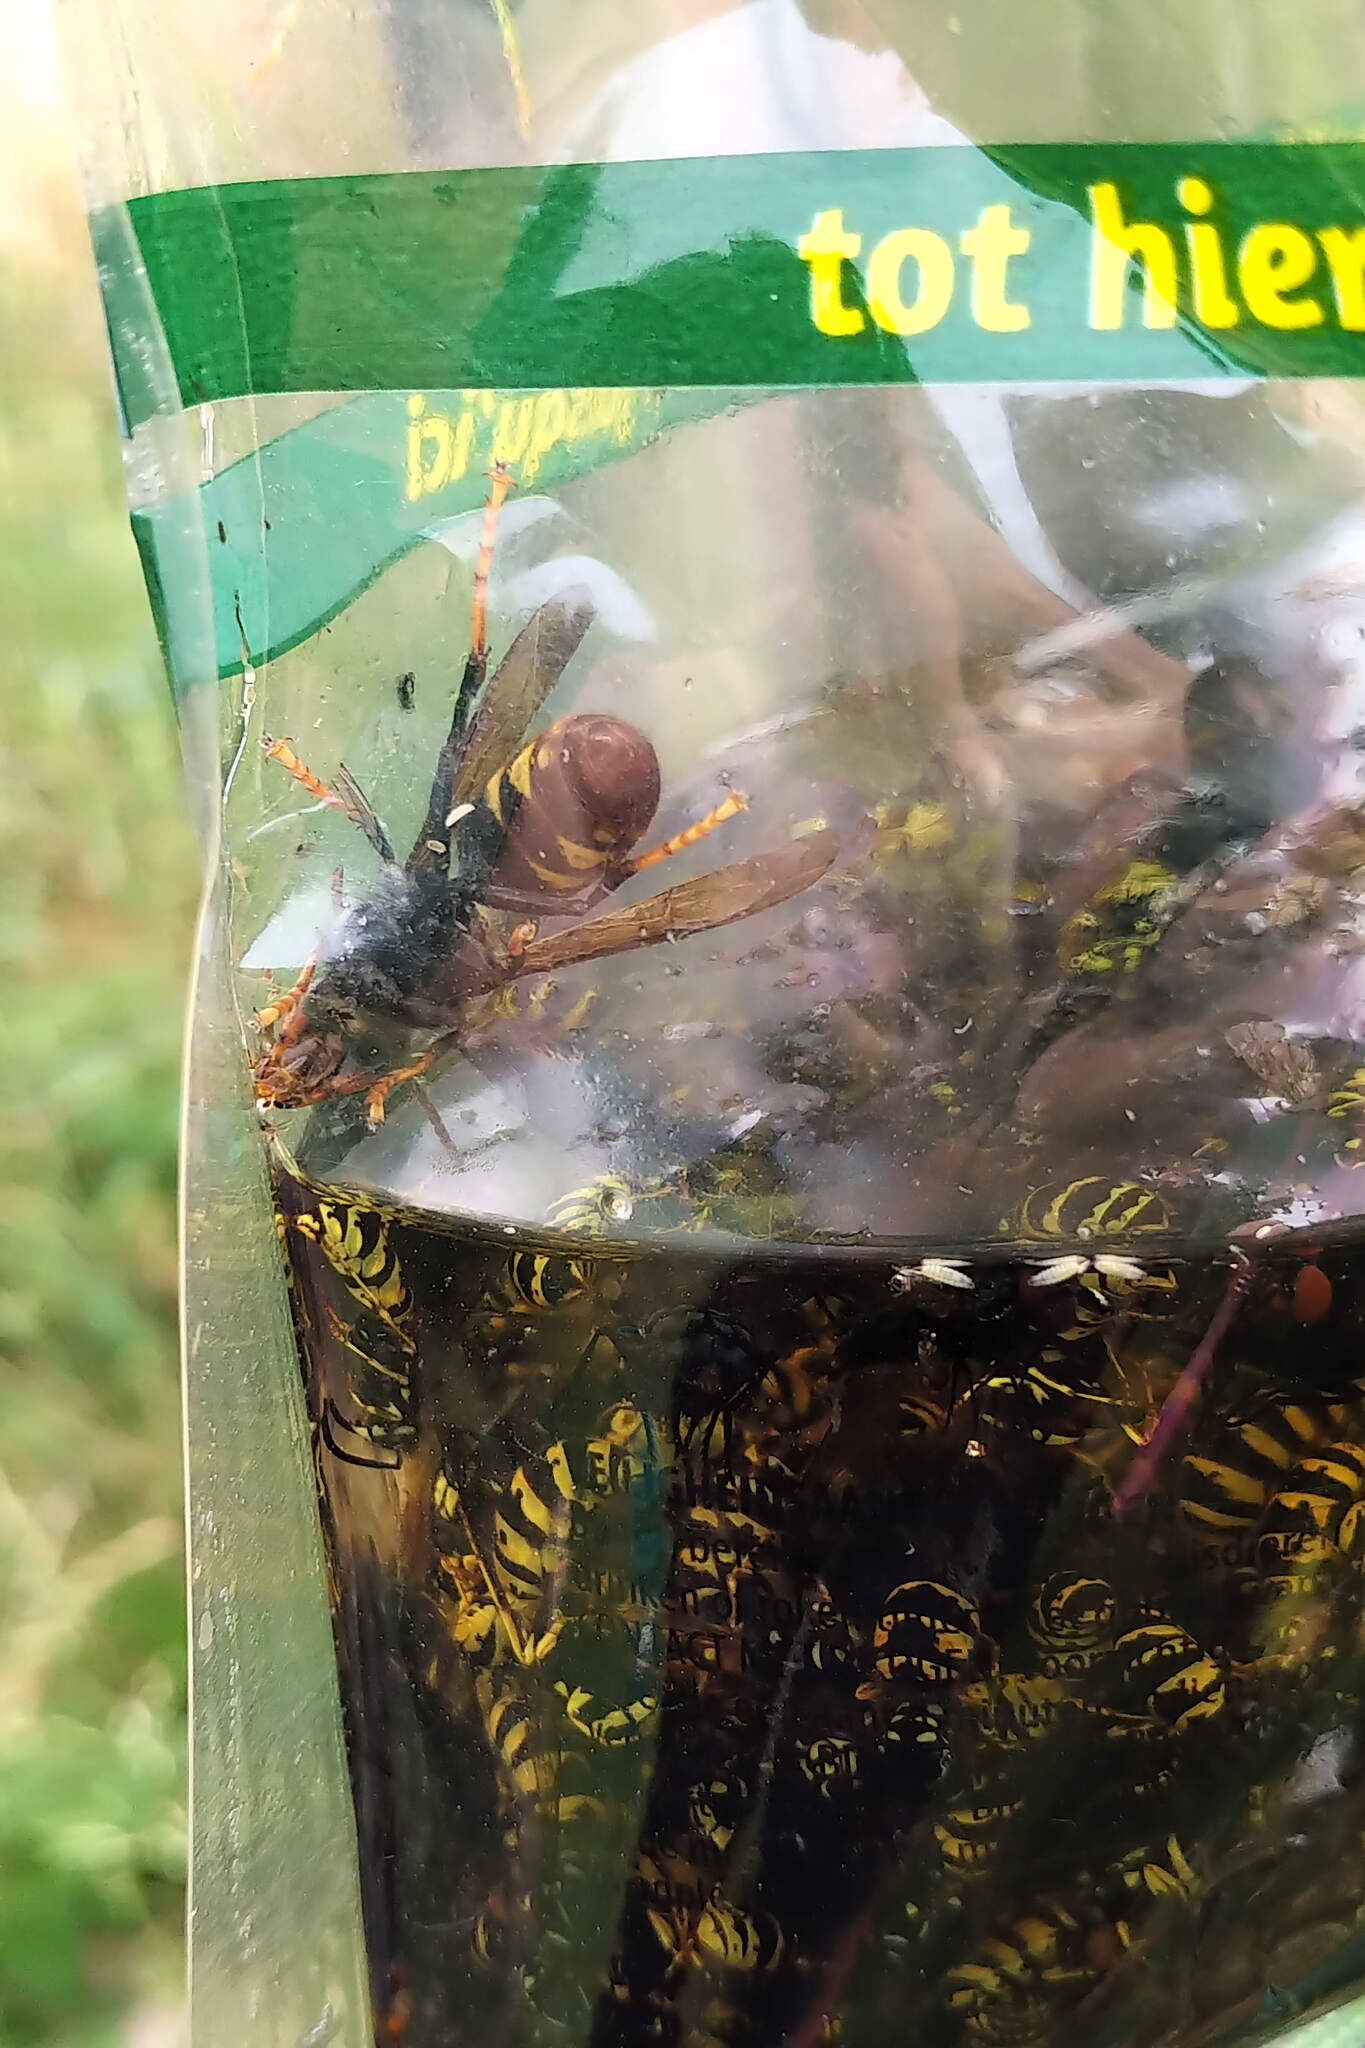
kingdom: Animalia
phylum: Arthropoda
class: Insecta
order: Hymenoptera
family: Vespidae
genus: Vespa
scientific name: Vespa velutina
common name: Asian hornet
